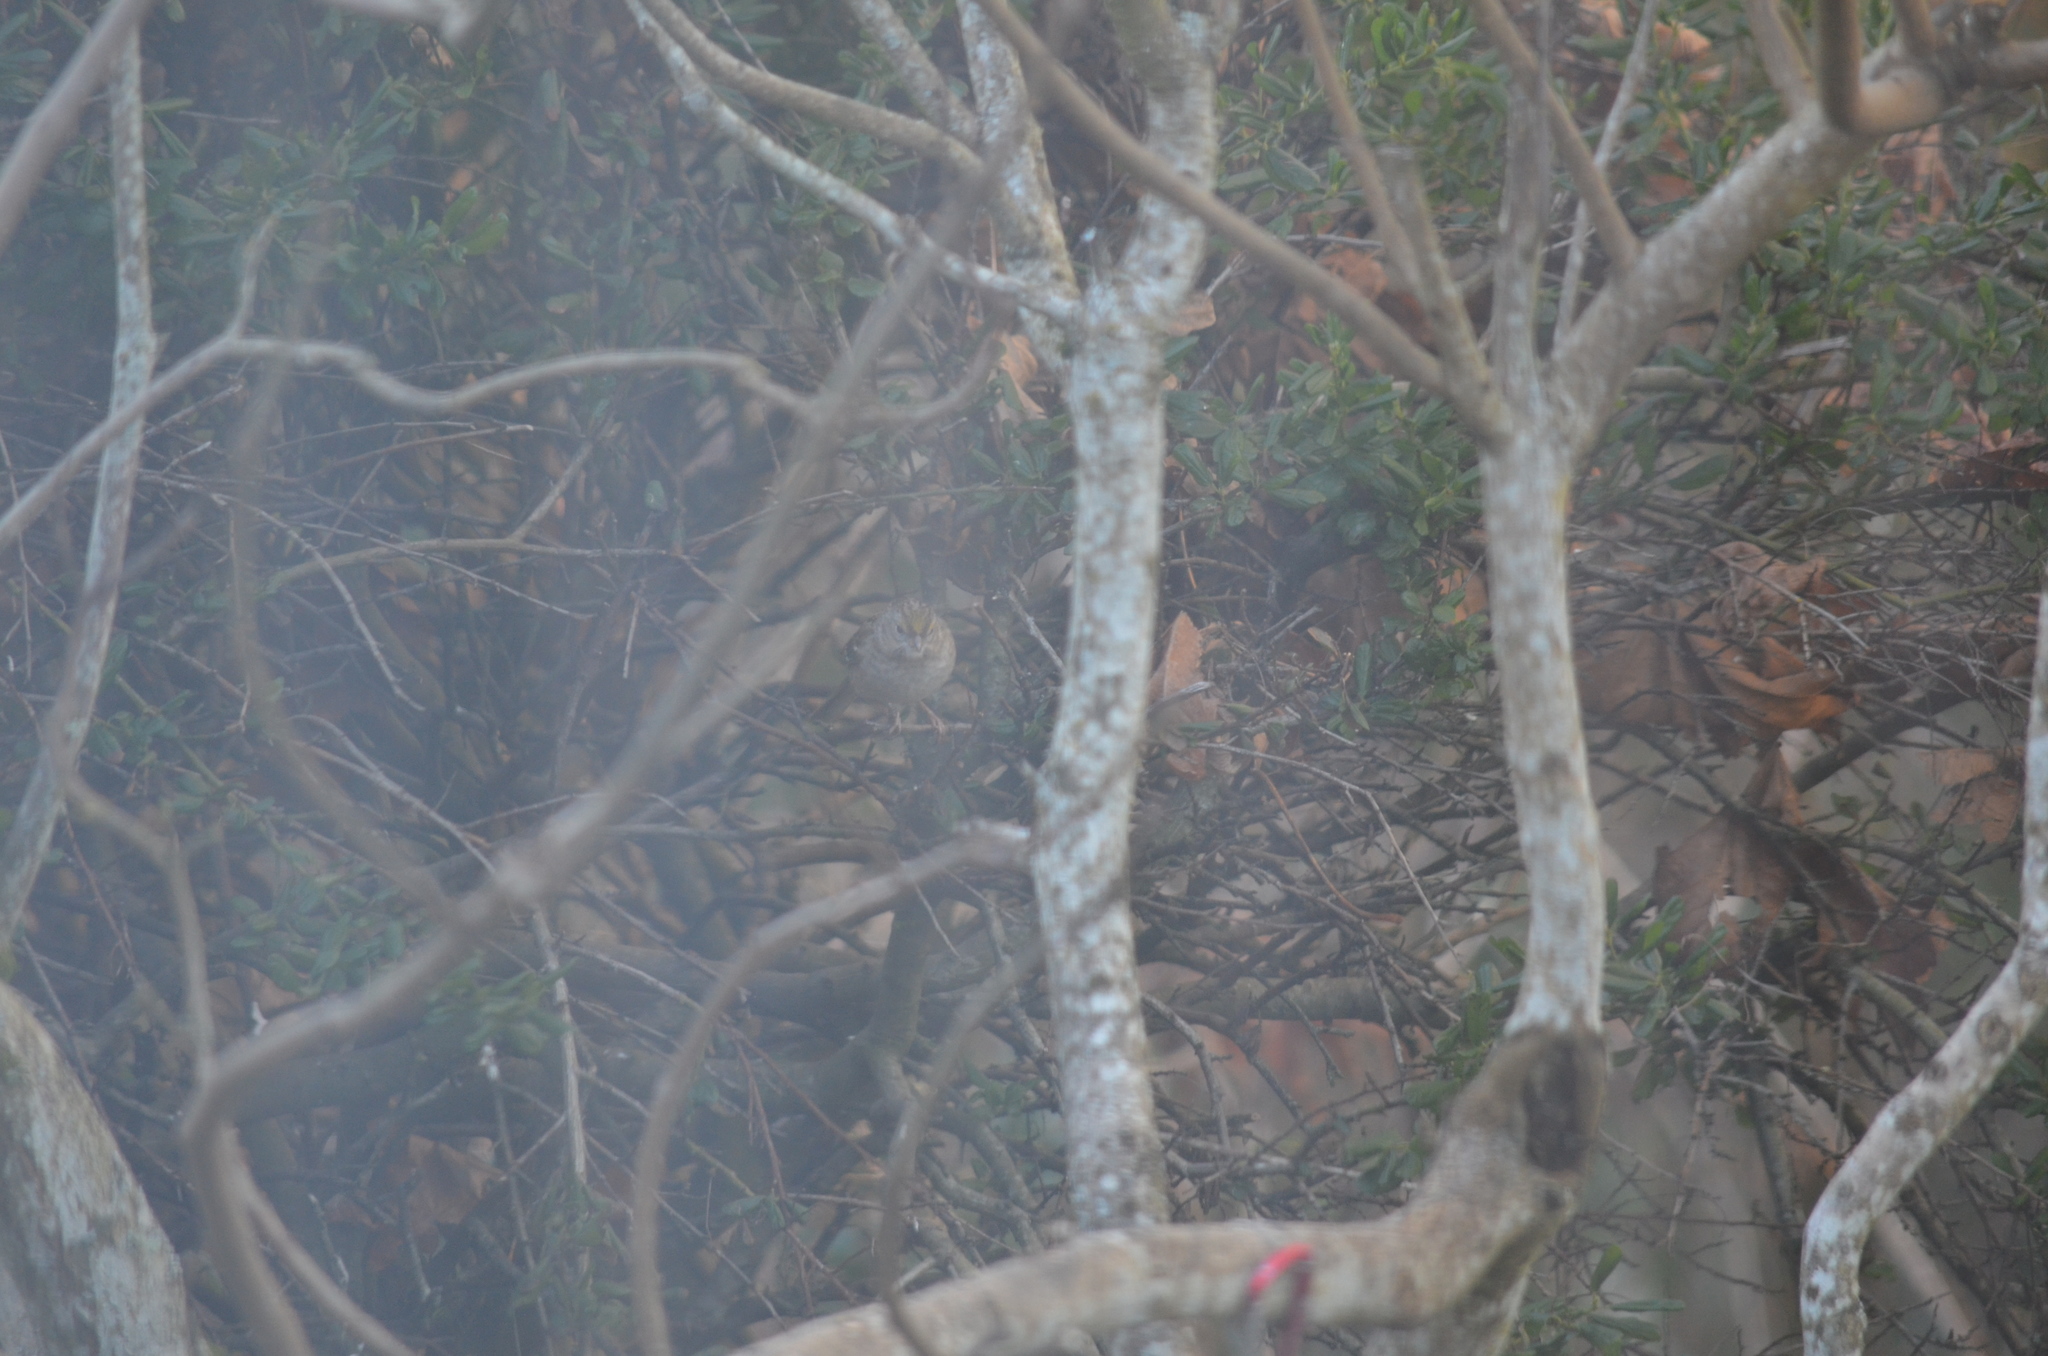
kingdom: Animalia
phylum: Chordata
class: Aves
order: Passeriformes
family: Passerellidae
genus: Zonotrichia
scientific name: Zonotrichia atricapilla
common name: Golden-crowned sparrow
